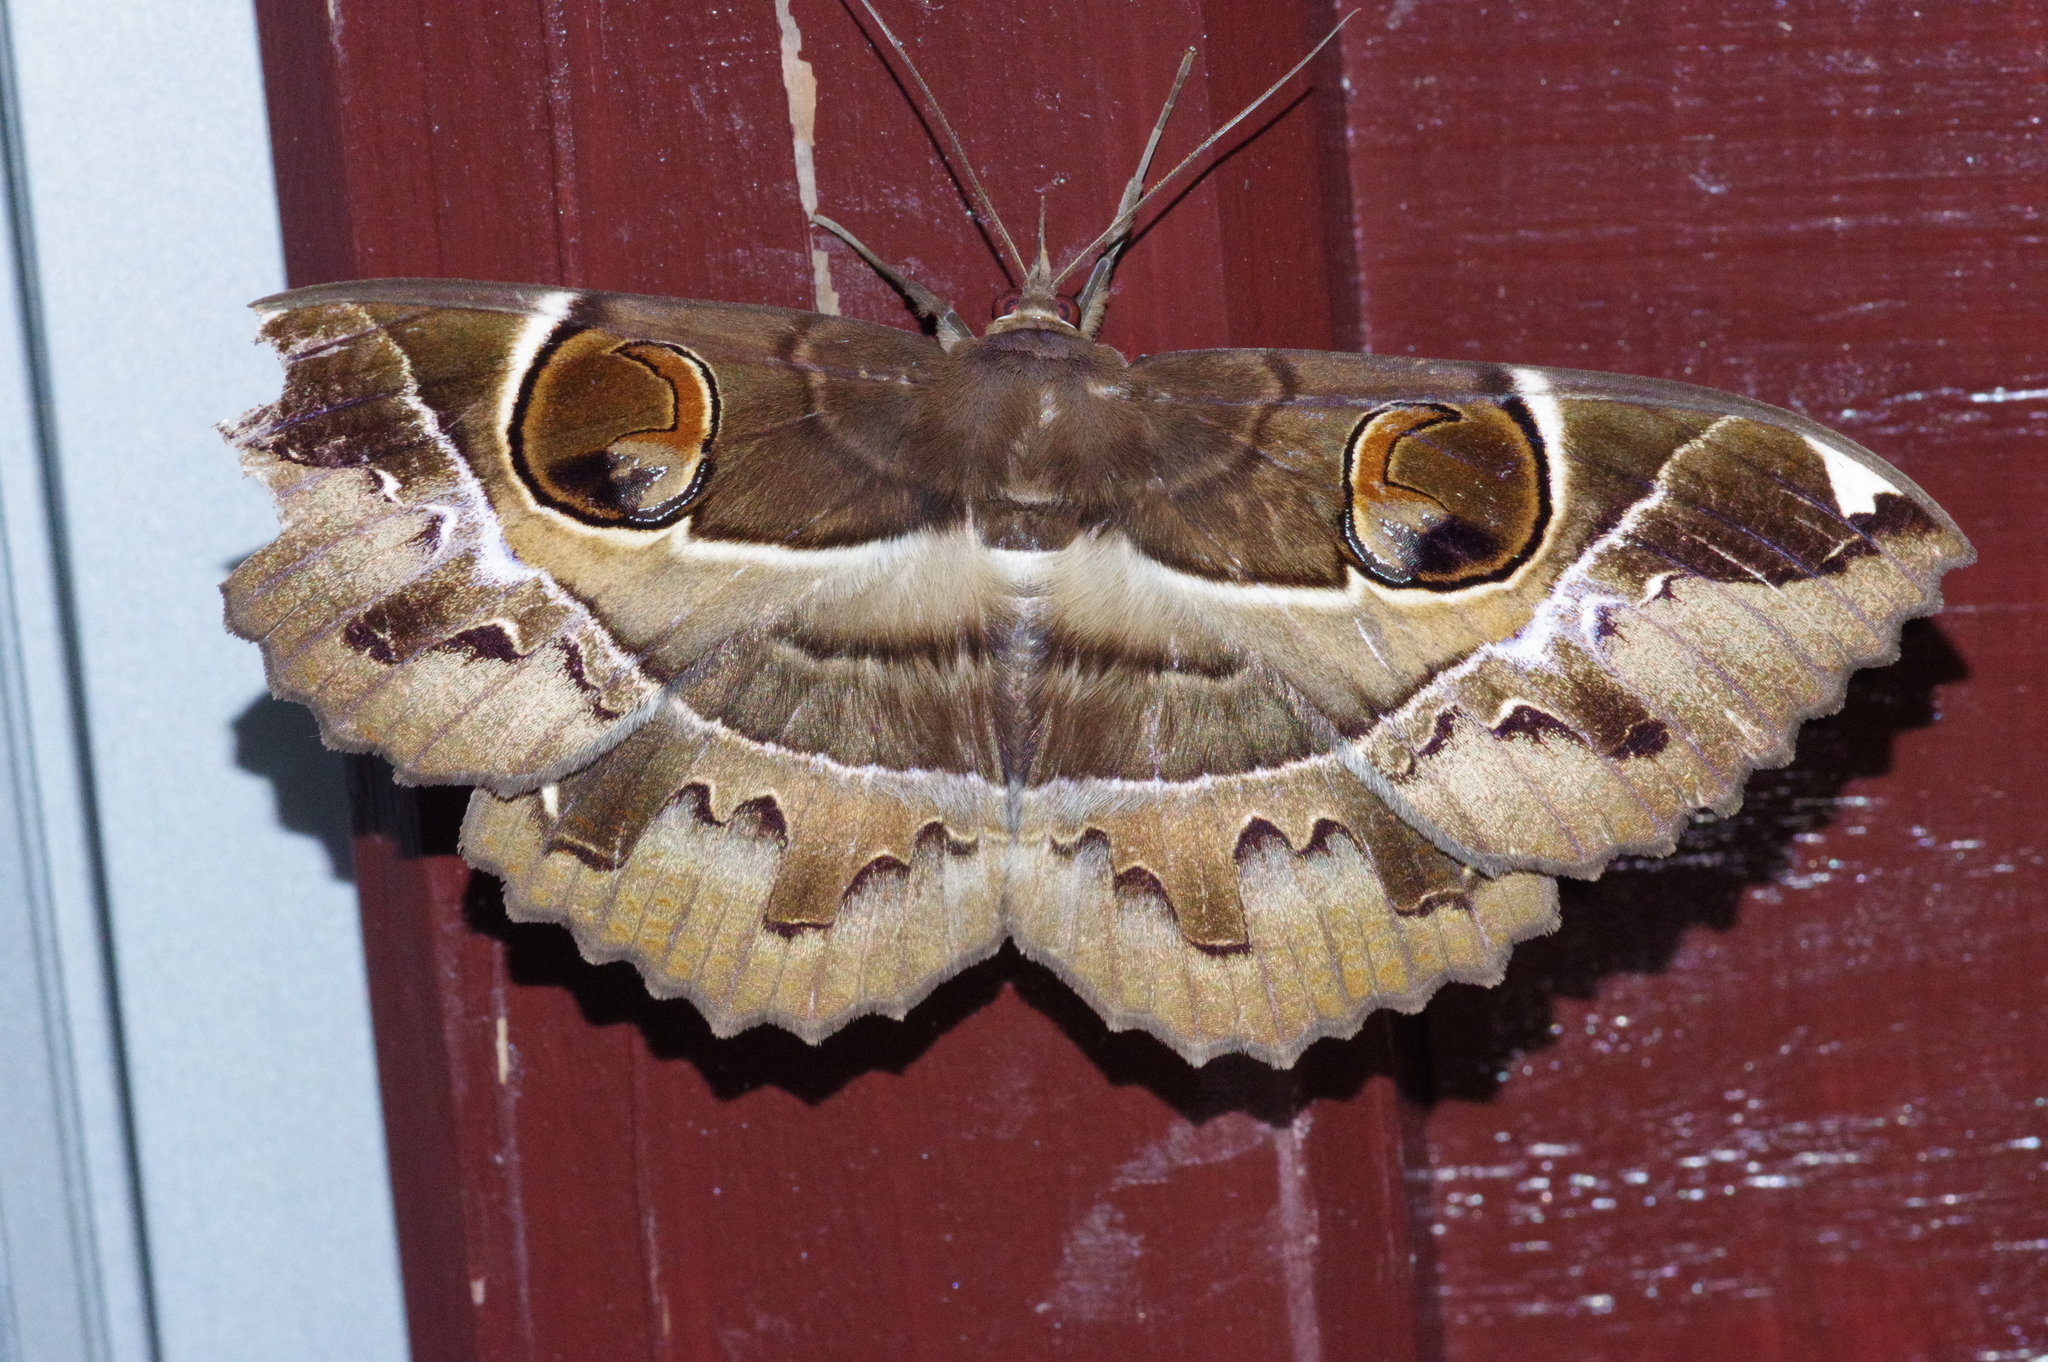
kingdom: Animalia
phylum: Arthropoda
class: Insecta
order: Lepidoptera
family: Erebidae
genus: Erebus
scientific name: Erebus ephesperis
